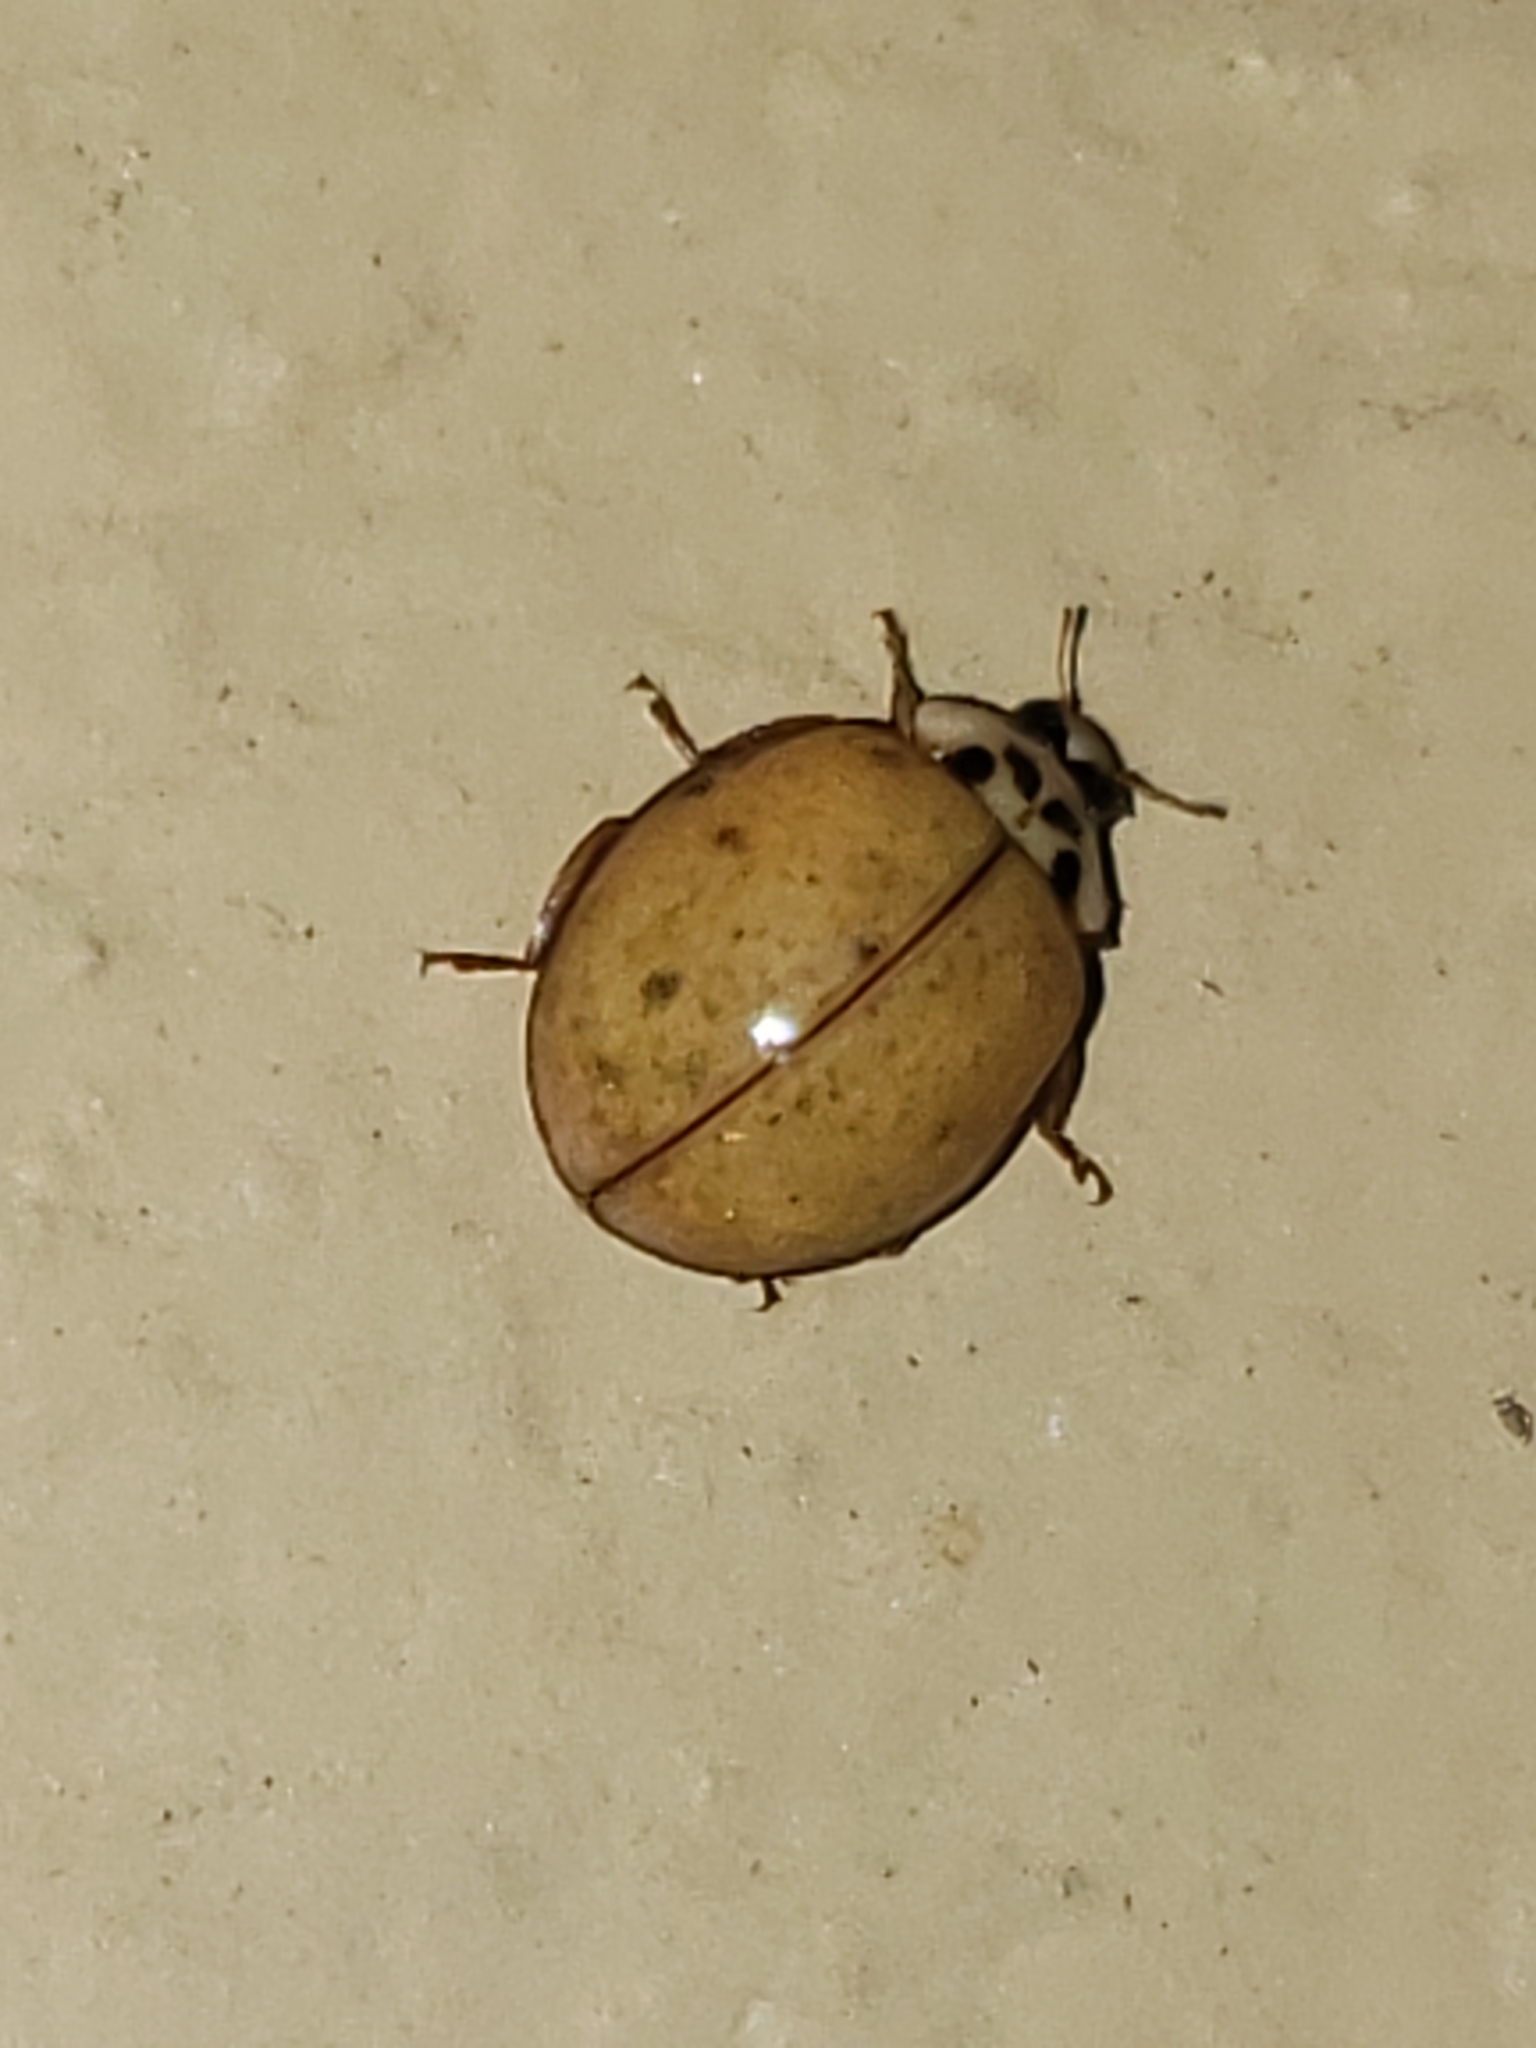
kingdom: Animalia
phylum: Arthropoda
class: Insecta
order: Coleoptera
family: Coccinellidae
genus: Harmonia
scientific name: Harmonia axyridis
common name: Harlequin ladybird
